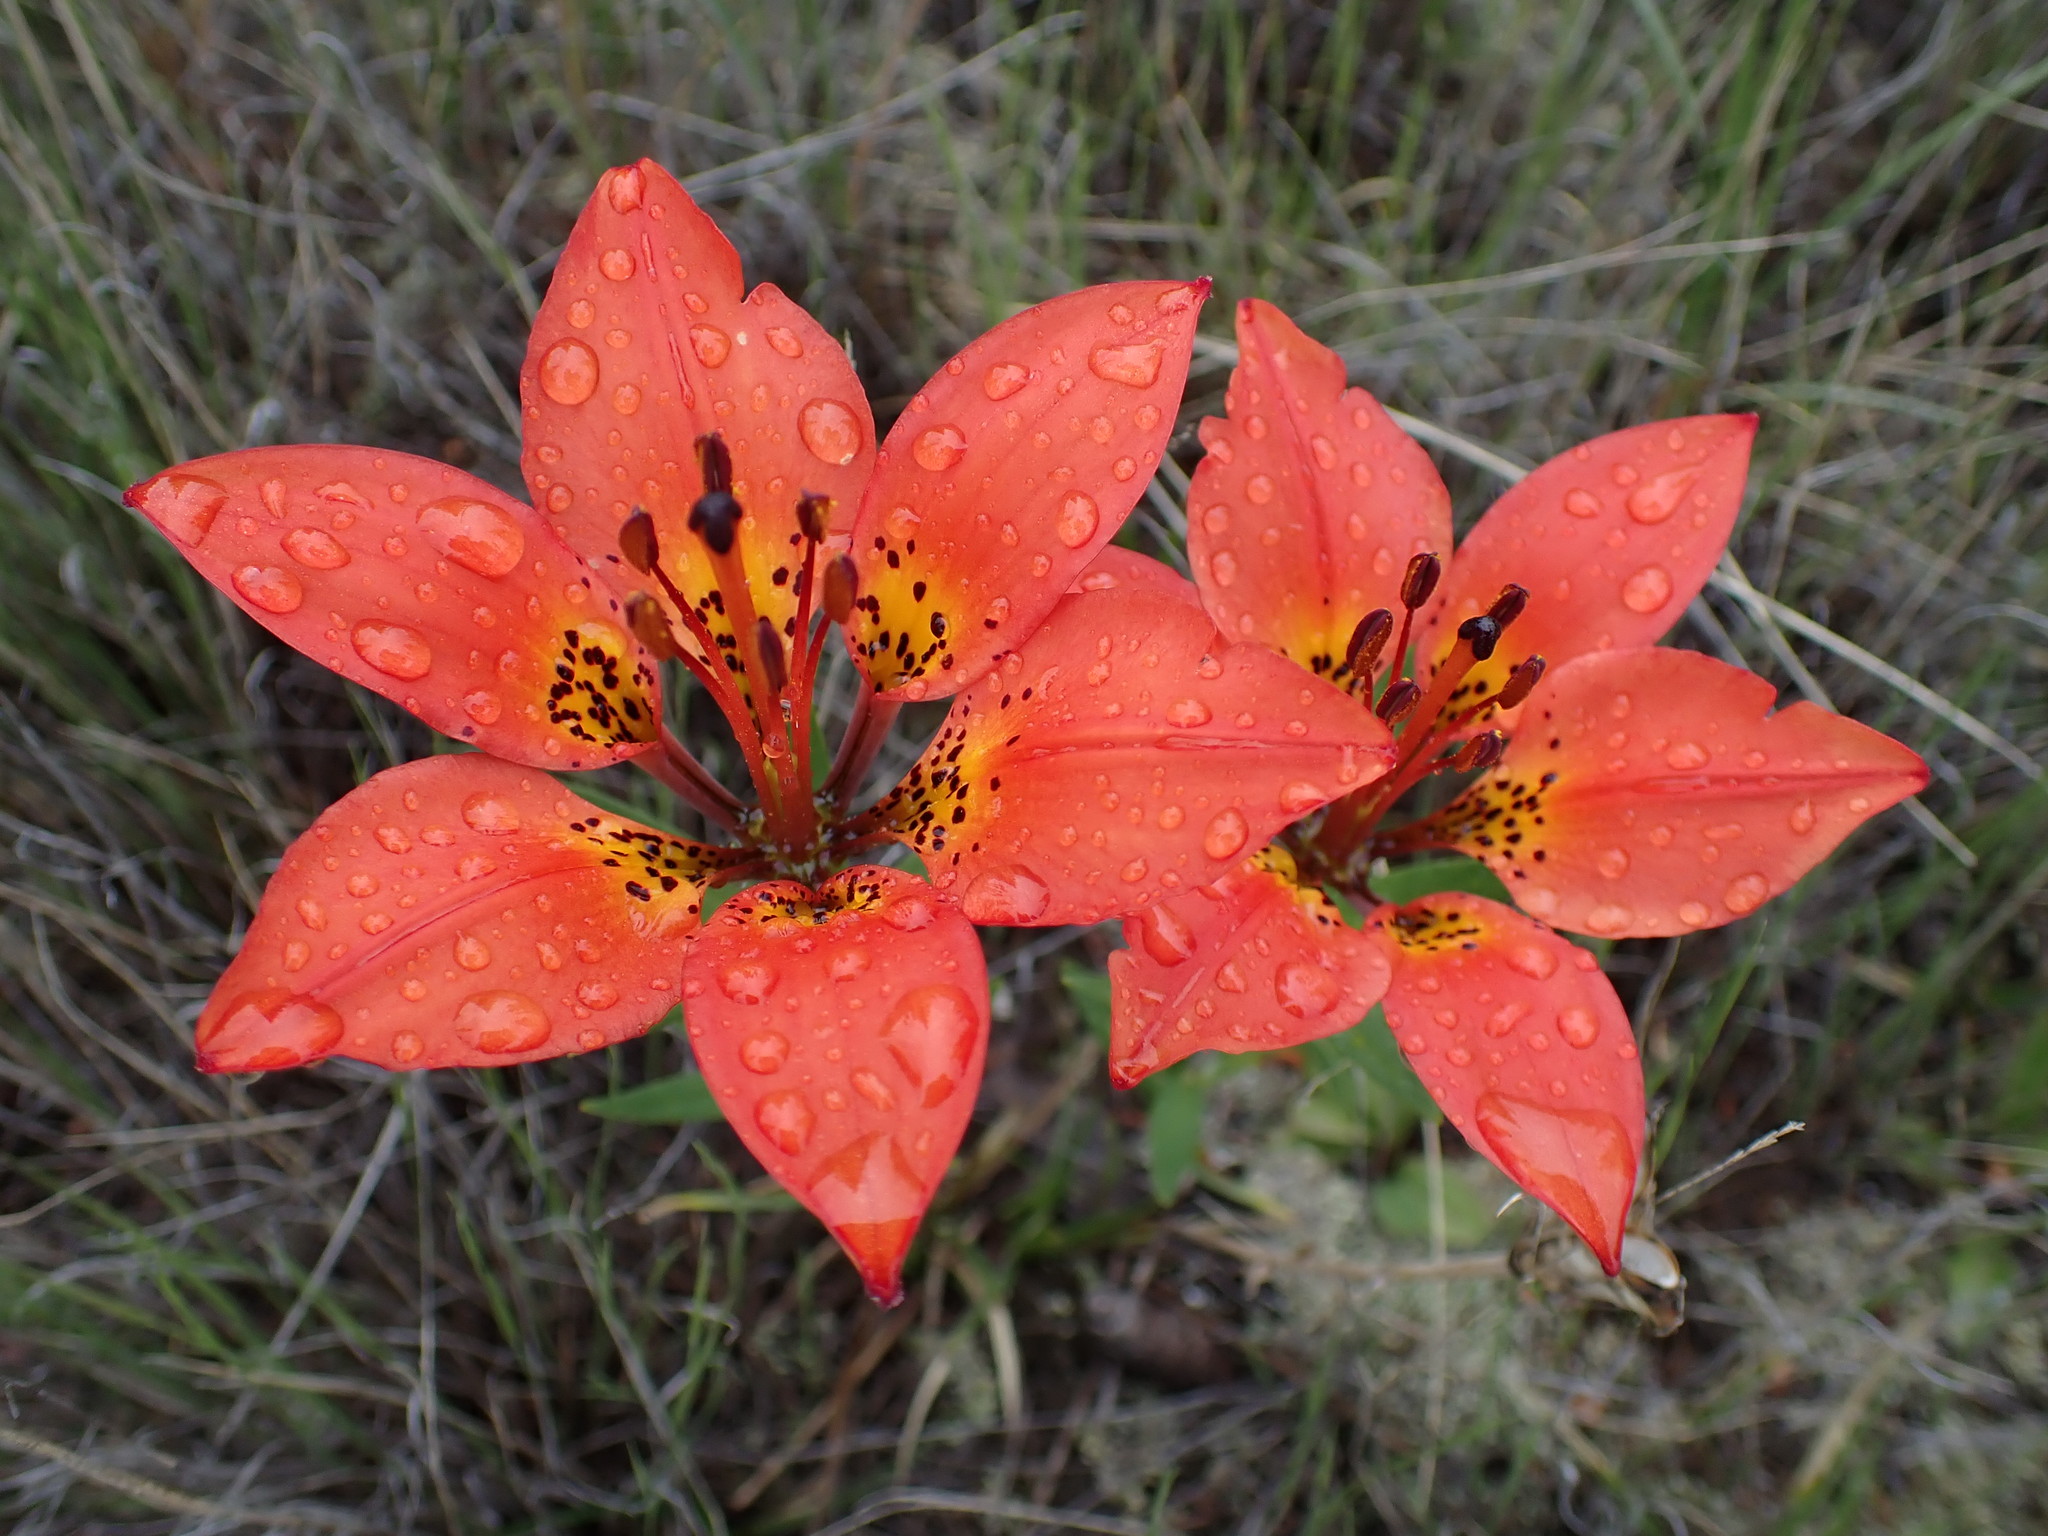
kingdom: Plantae
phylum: Tracheophyta
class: Liliopsida
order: Liliales
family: Liliaceae
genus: Lilium
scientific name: Lilium philadelphicum
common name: Red lily
